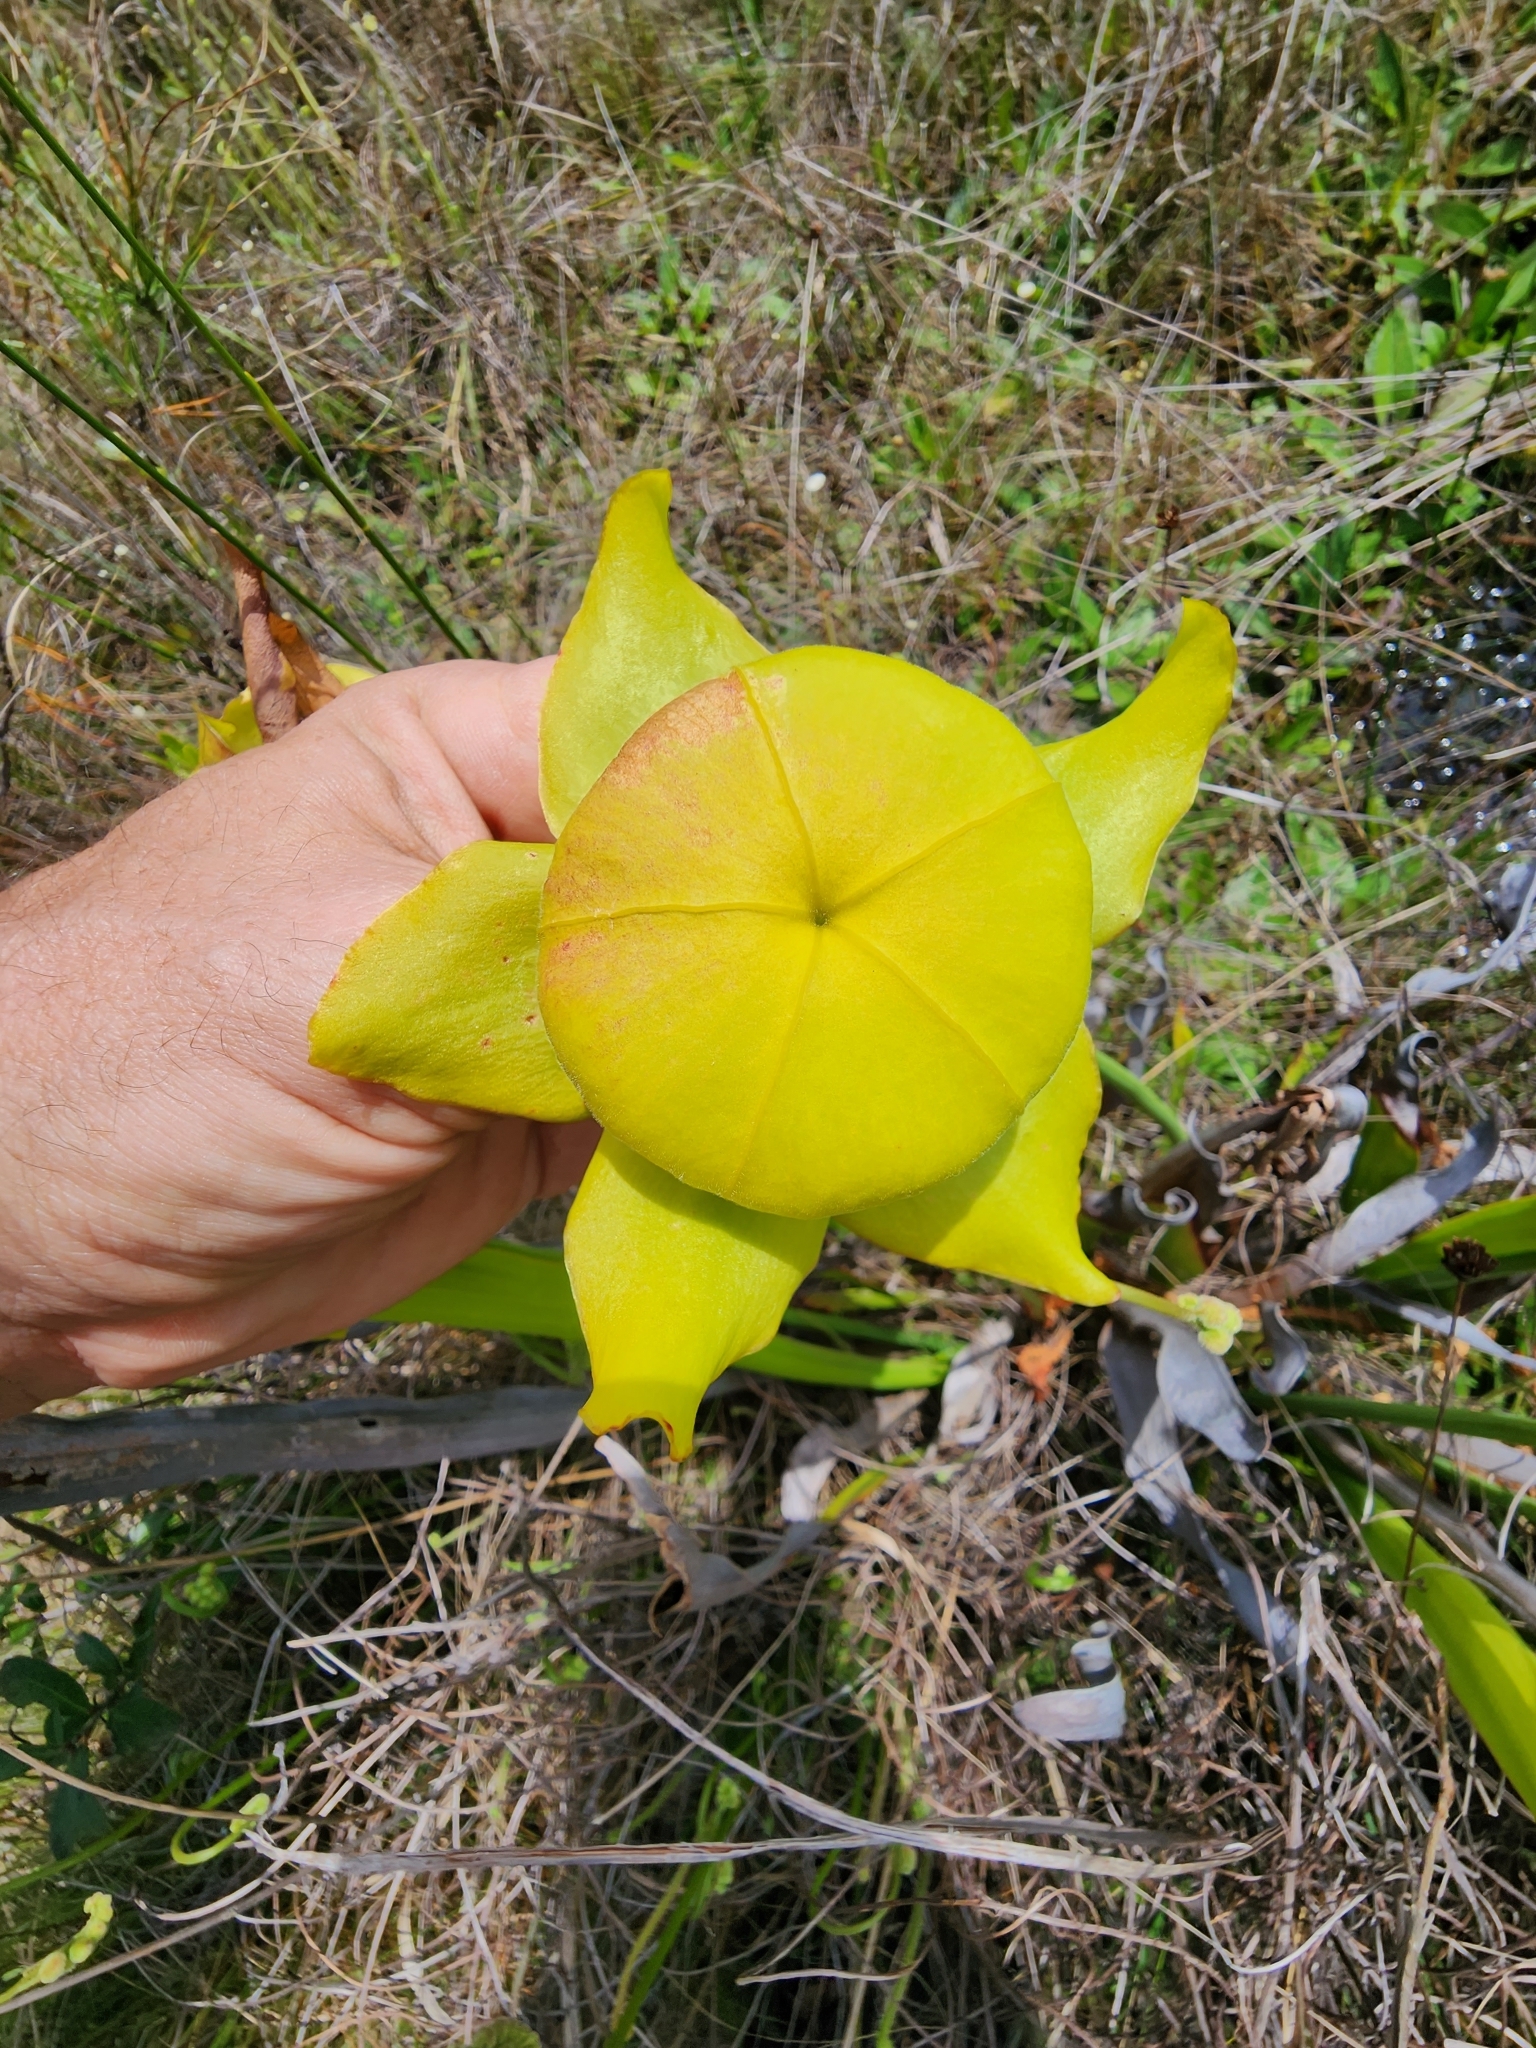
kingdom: Plantae
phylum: Tracheophyta
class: Magnoliopsida
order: Ericales
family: Sarraceniaceae
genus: Sarracenia
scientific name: Sarracenia flava
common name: Trumpets
